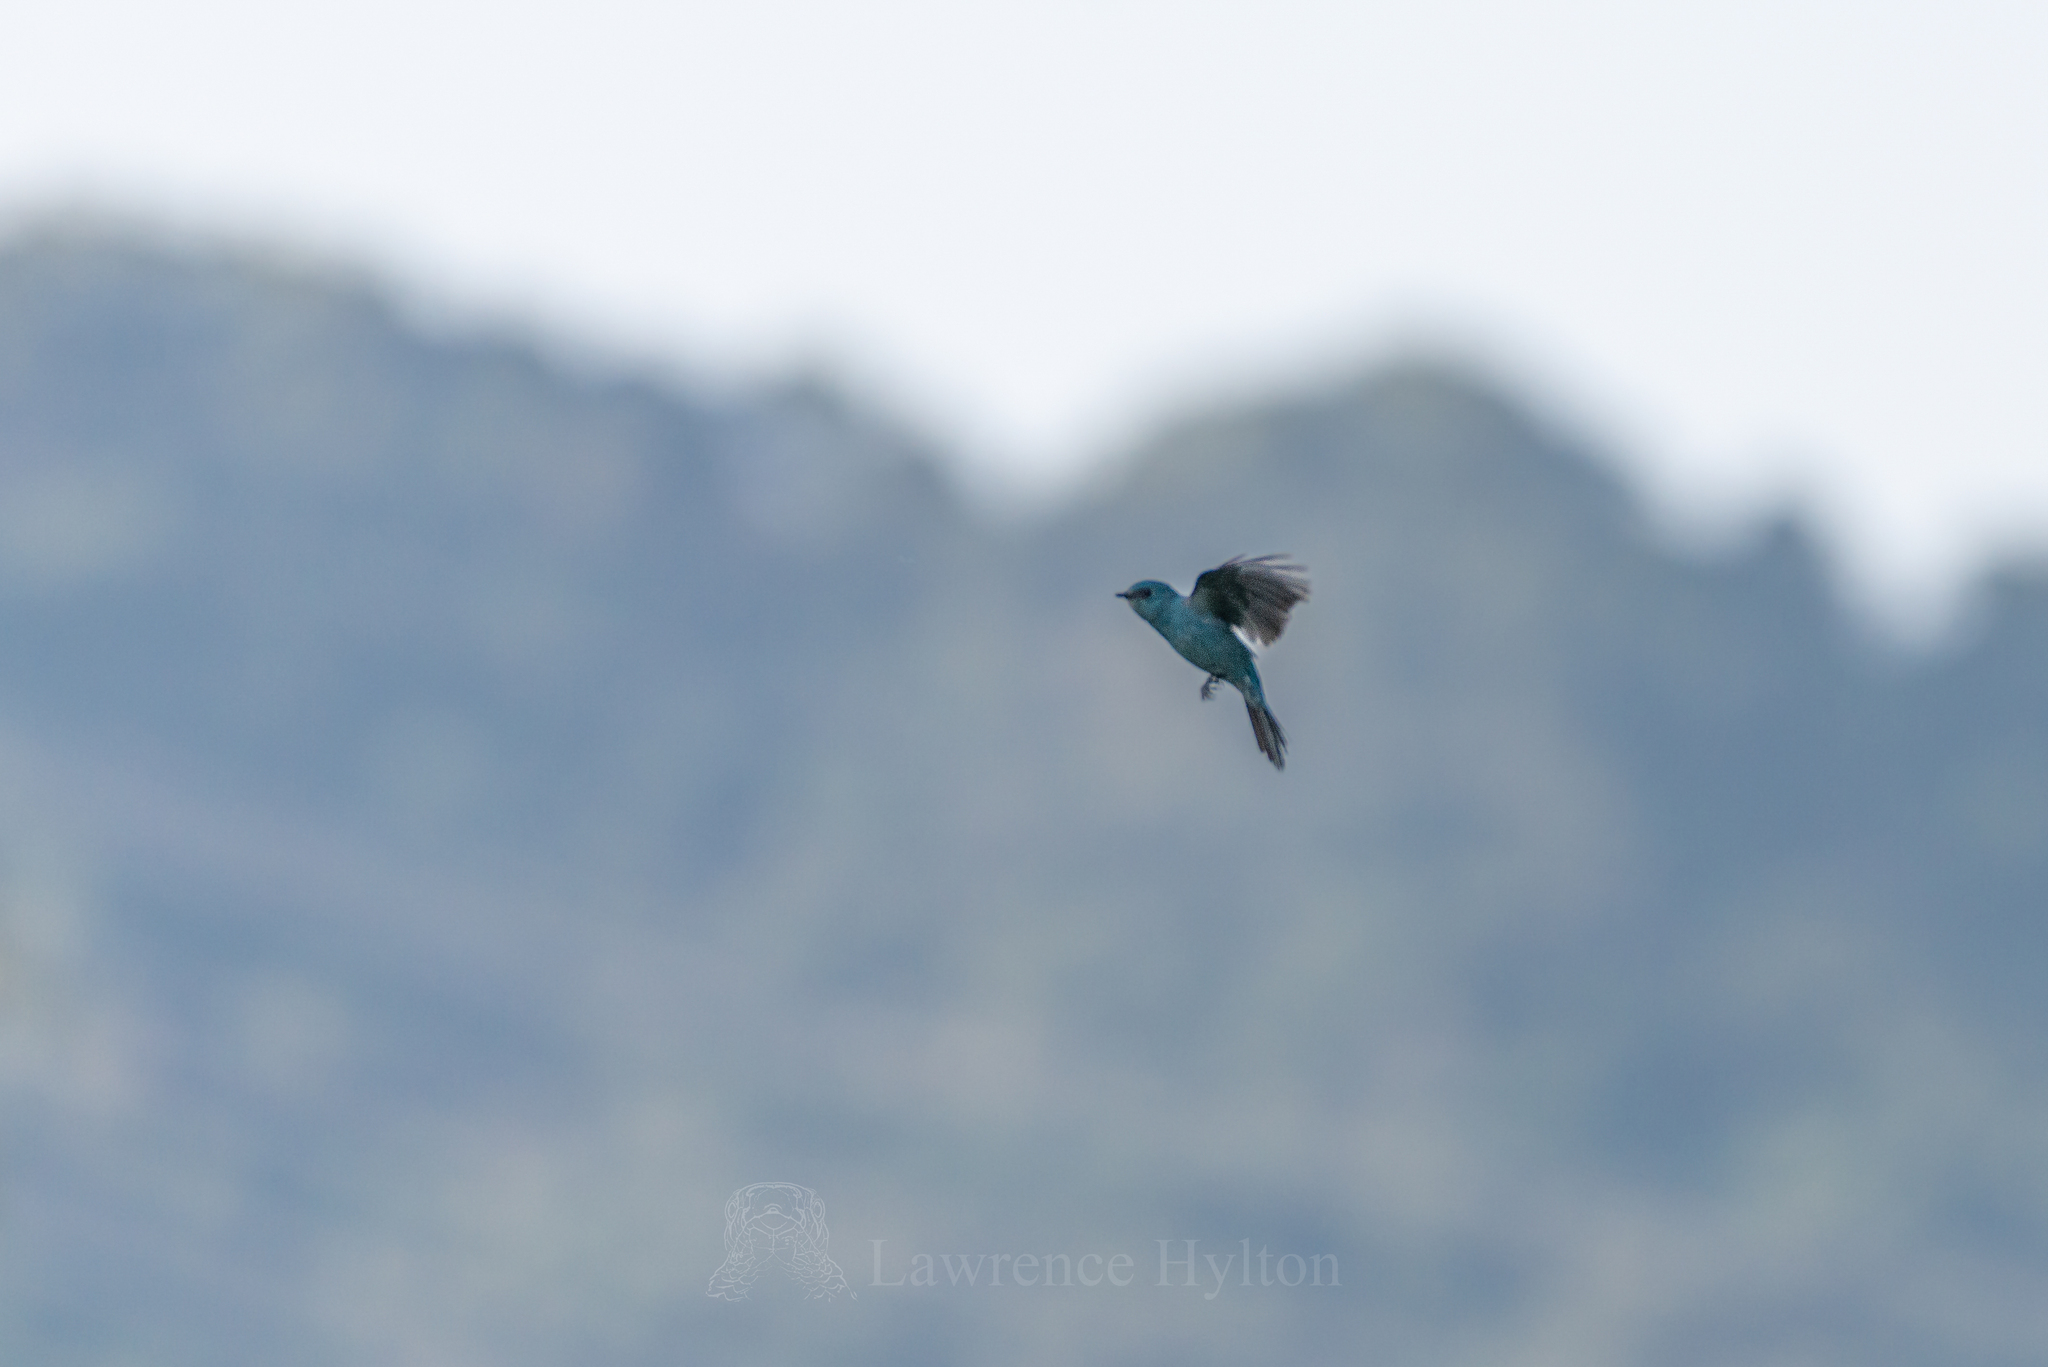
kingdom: Animalia
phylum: Chordata
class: Aves
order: Passeriformes
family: Muscicapidae
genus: Eumyias
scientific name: Eumyias thalassinus
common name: Verditer flycatcher
